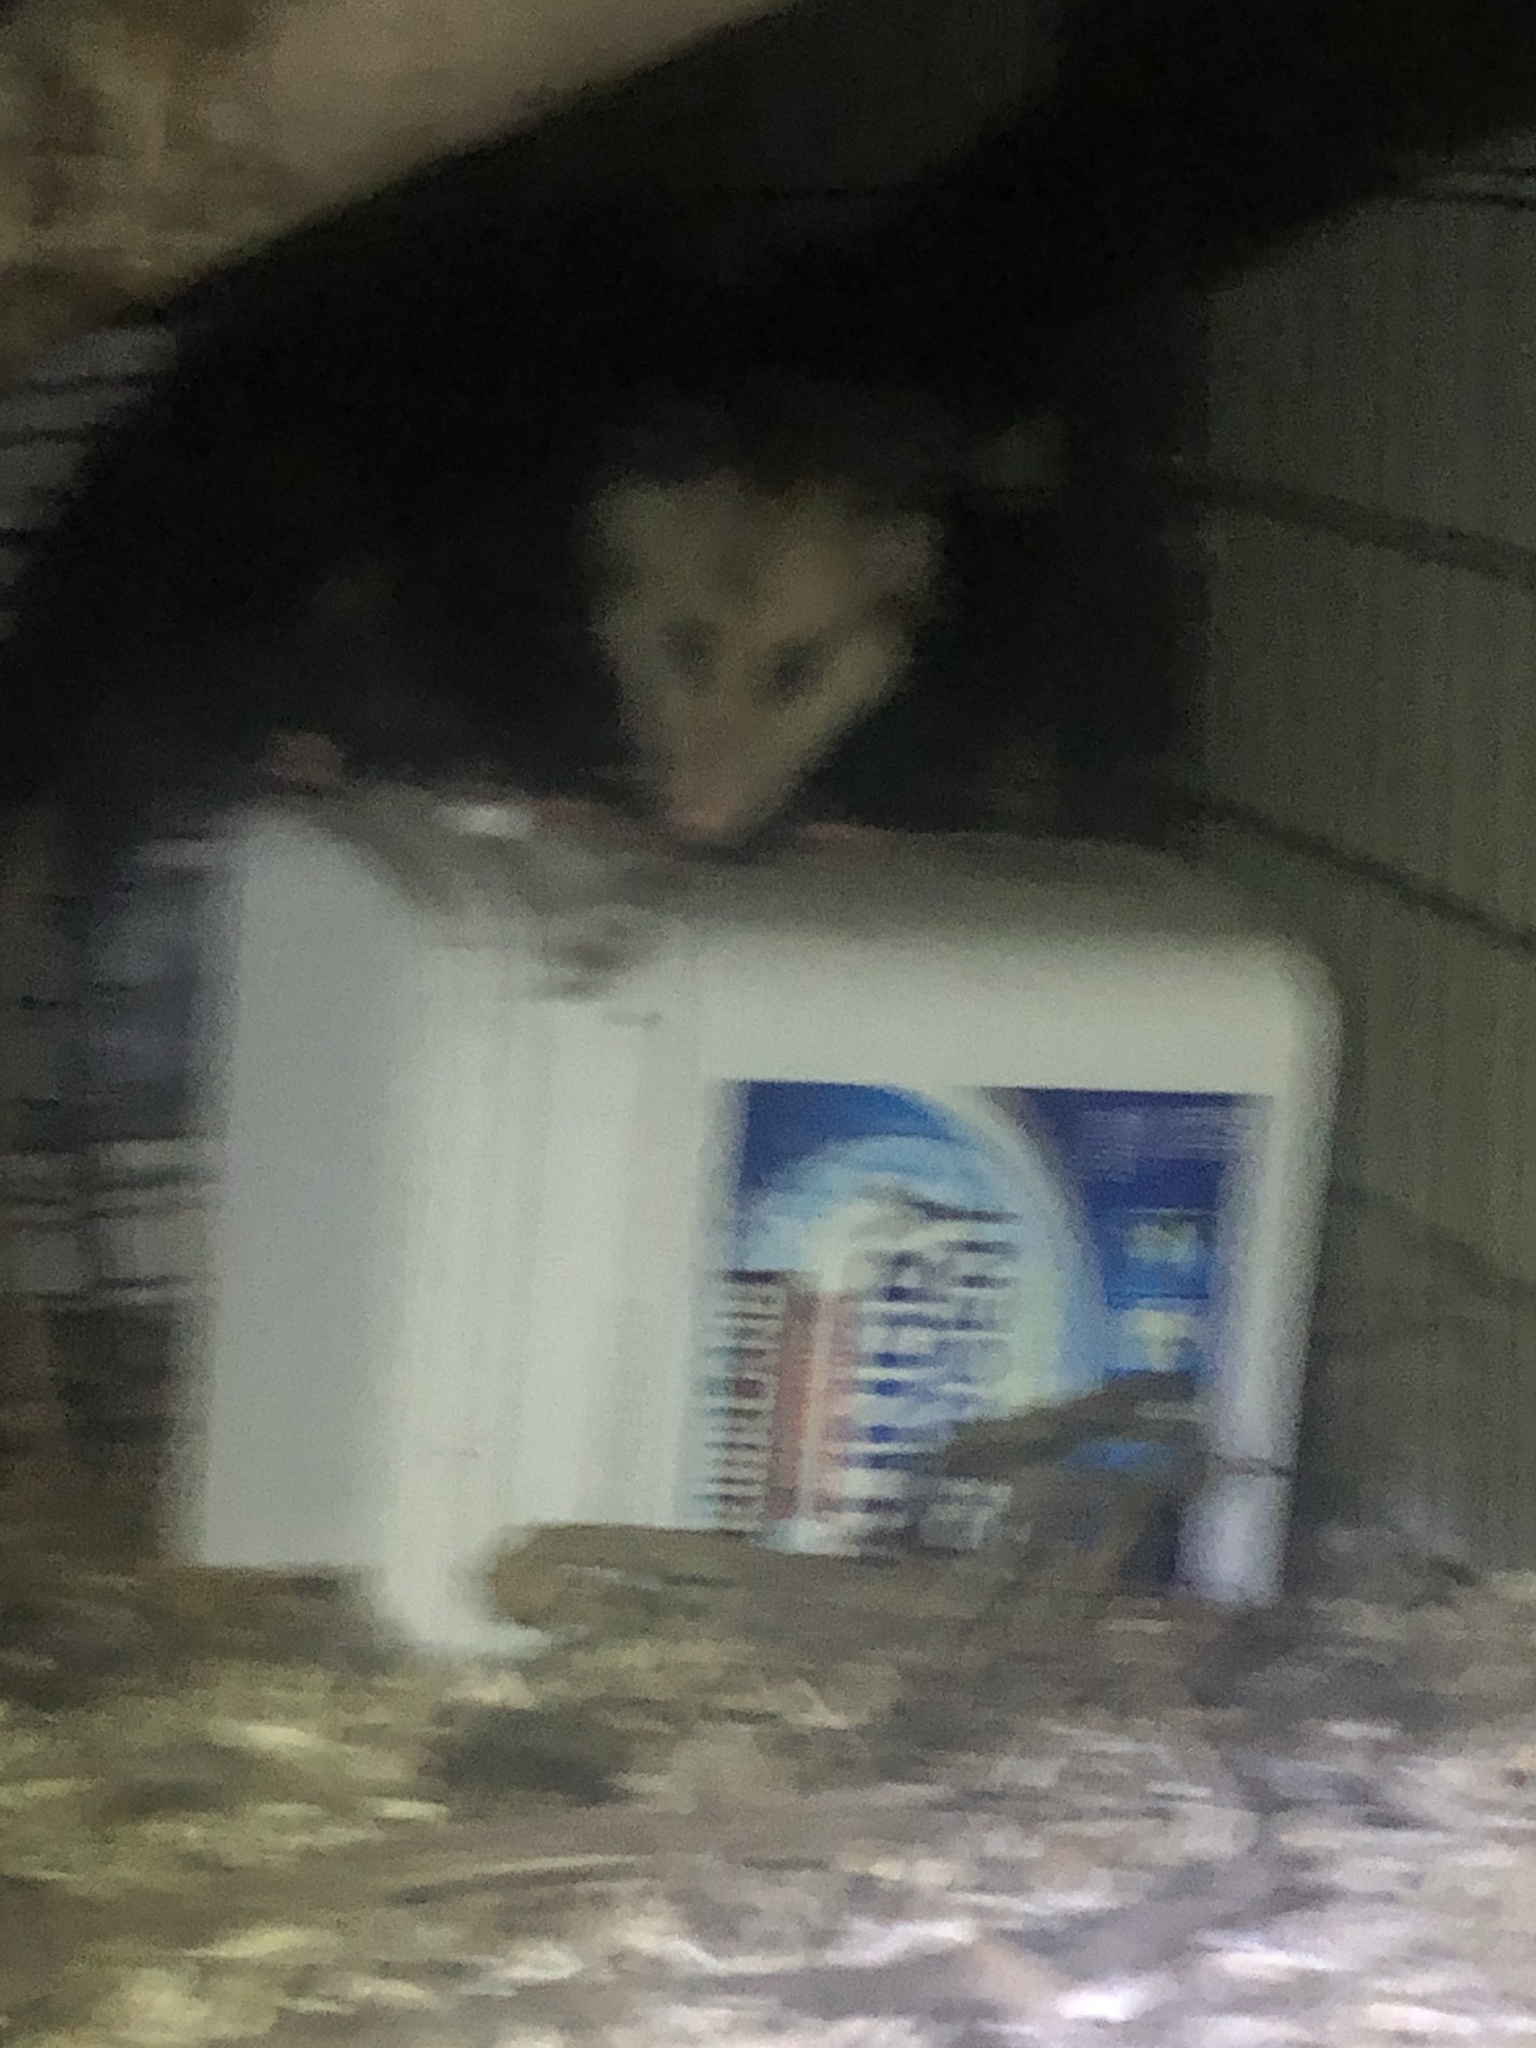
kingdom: Animalia
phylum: Chordata
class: Mammalia
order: Didelphimorphia
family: Didelphidae
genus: Didelphis
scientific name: Didelphis virginiana
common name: Virginia opossum
